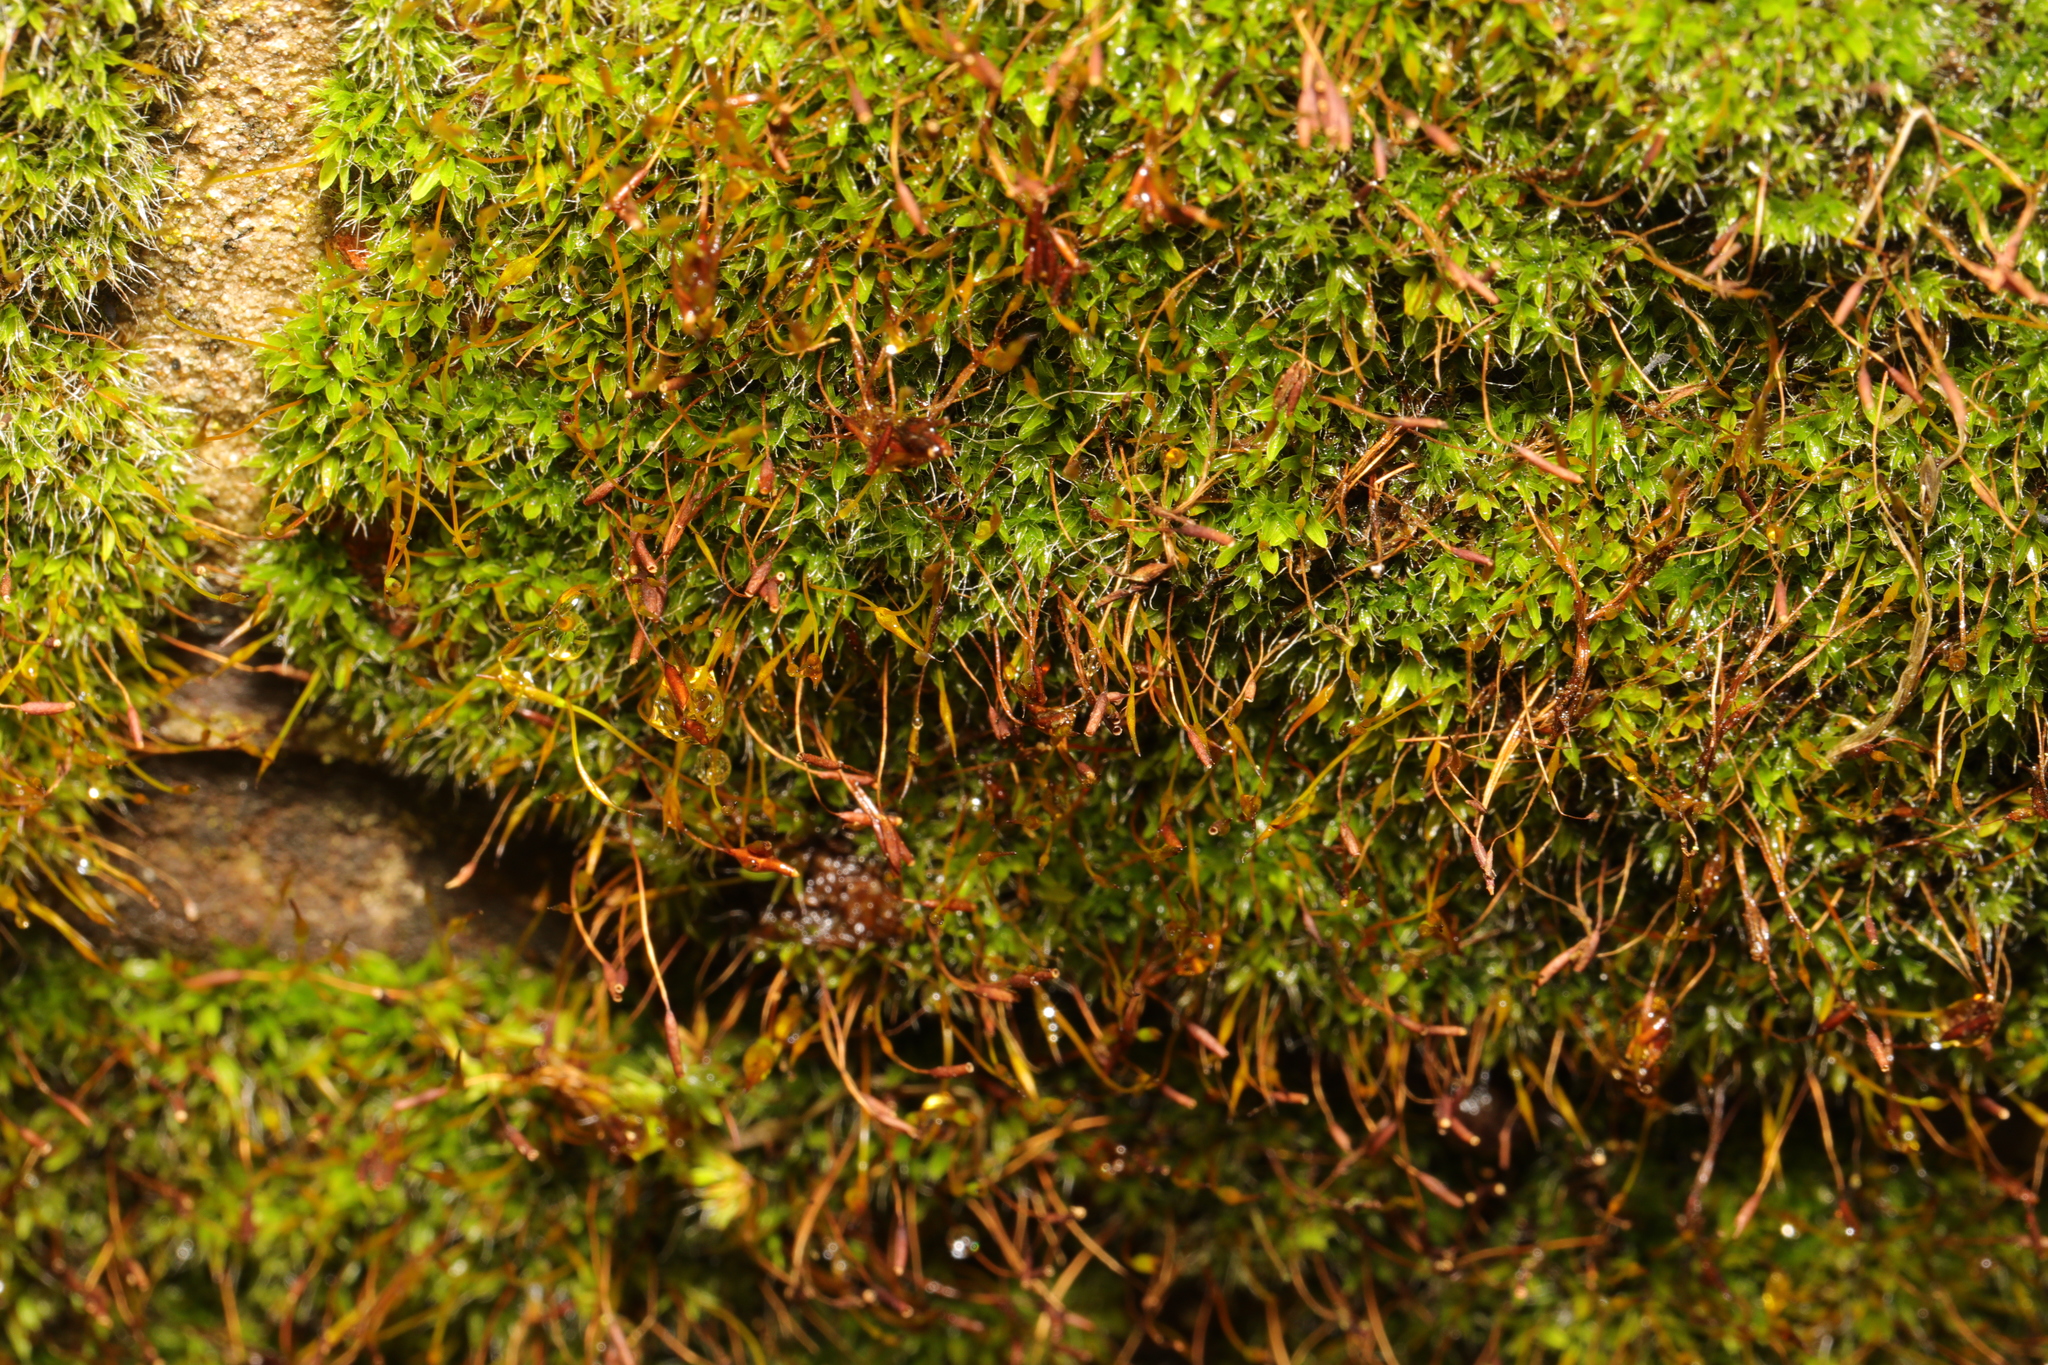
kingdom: Plantae
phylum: Bryophyta
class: Bryopsida
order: Pottiales
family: Pottiaceae
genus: Tortula
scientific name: Tortula muralis
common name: Wall screw-moss
